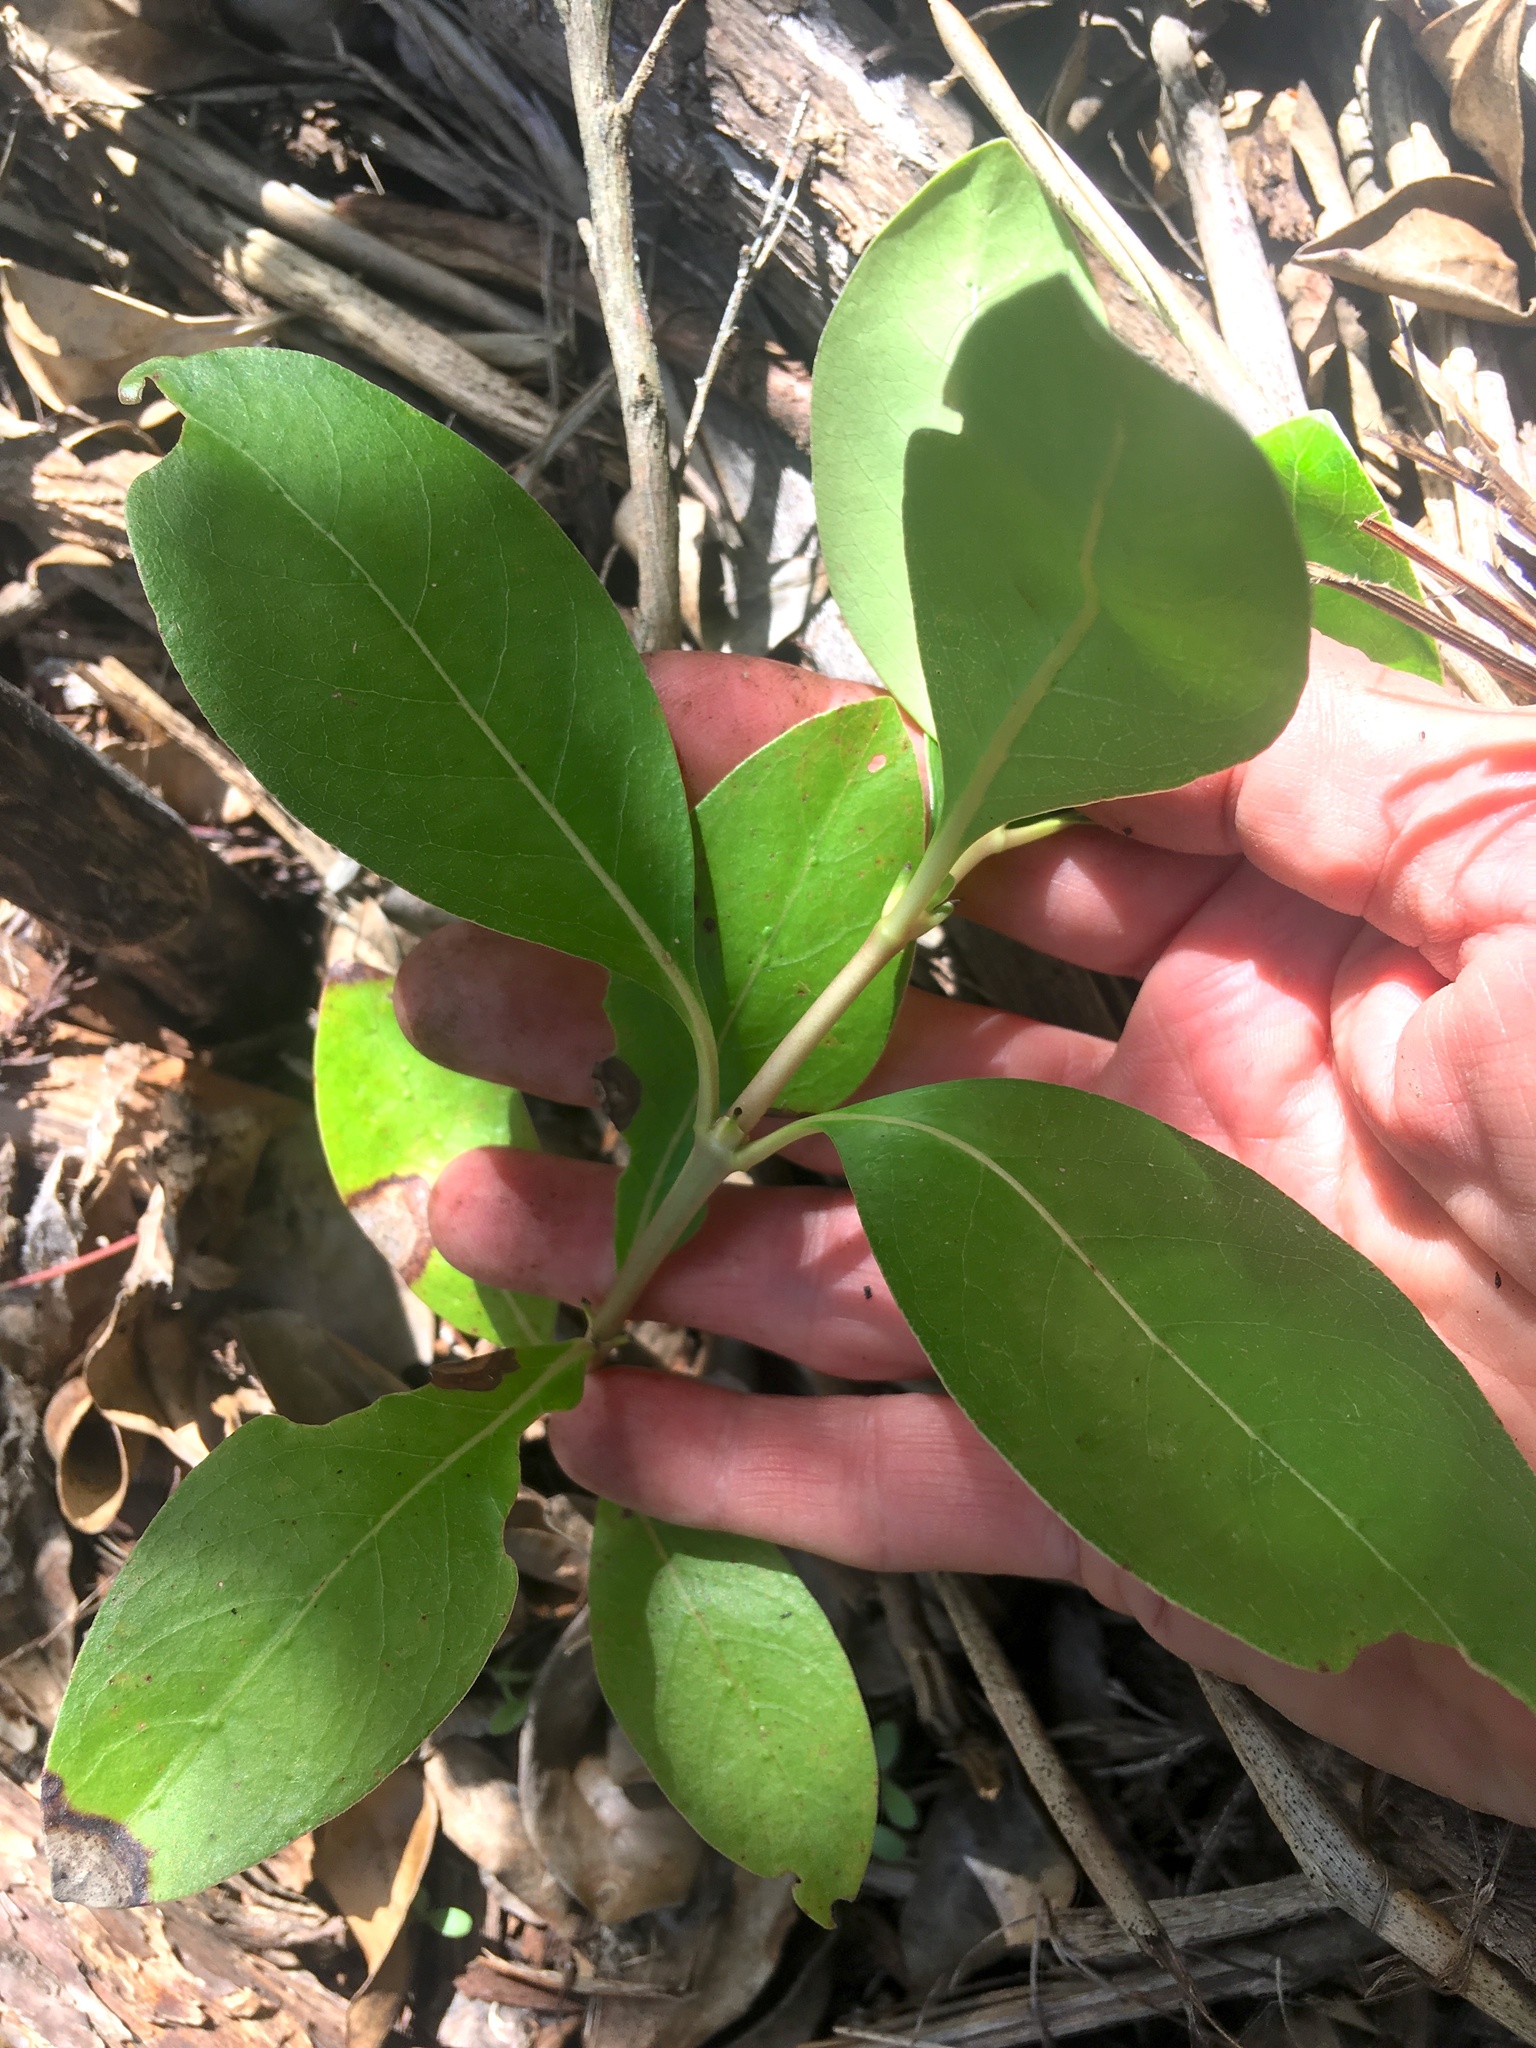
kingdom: Plantae
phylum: Tracheophyta
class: Magnoliopsida
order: Gentianales
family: Rubiaceae
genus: Coprosma
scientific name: Coprosma robusta
